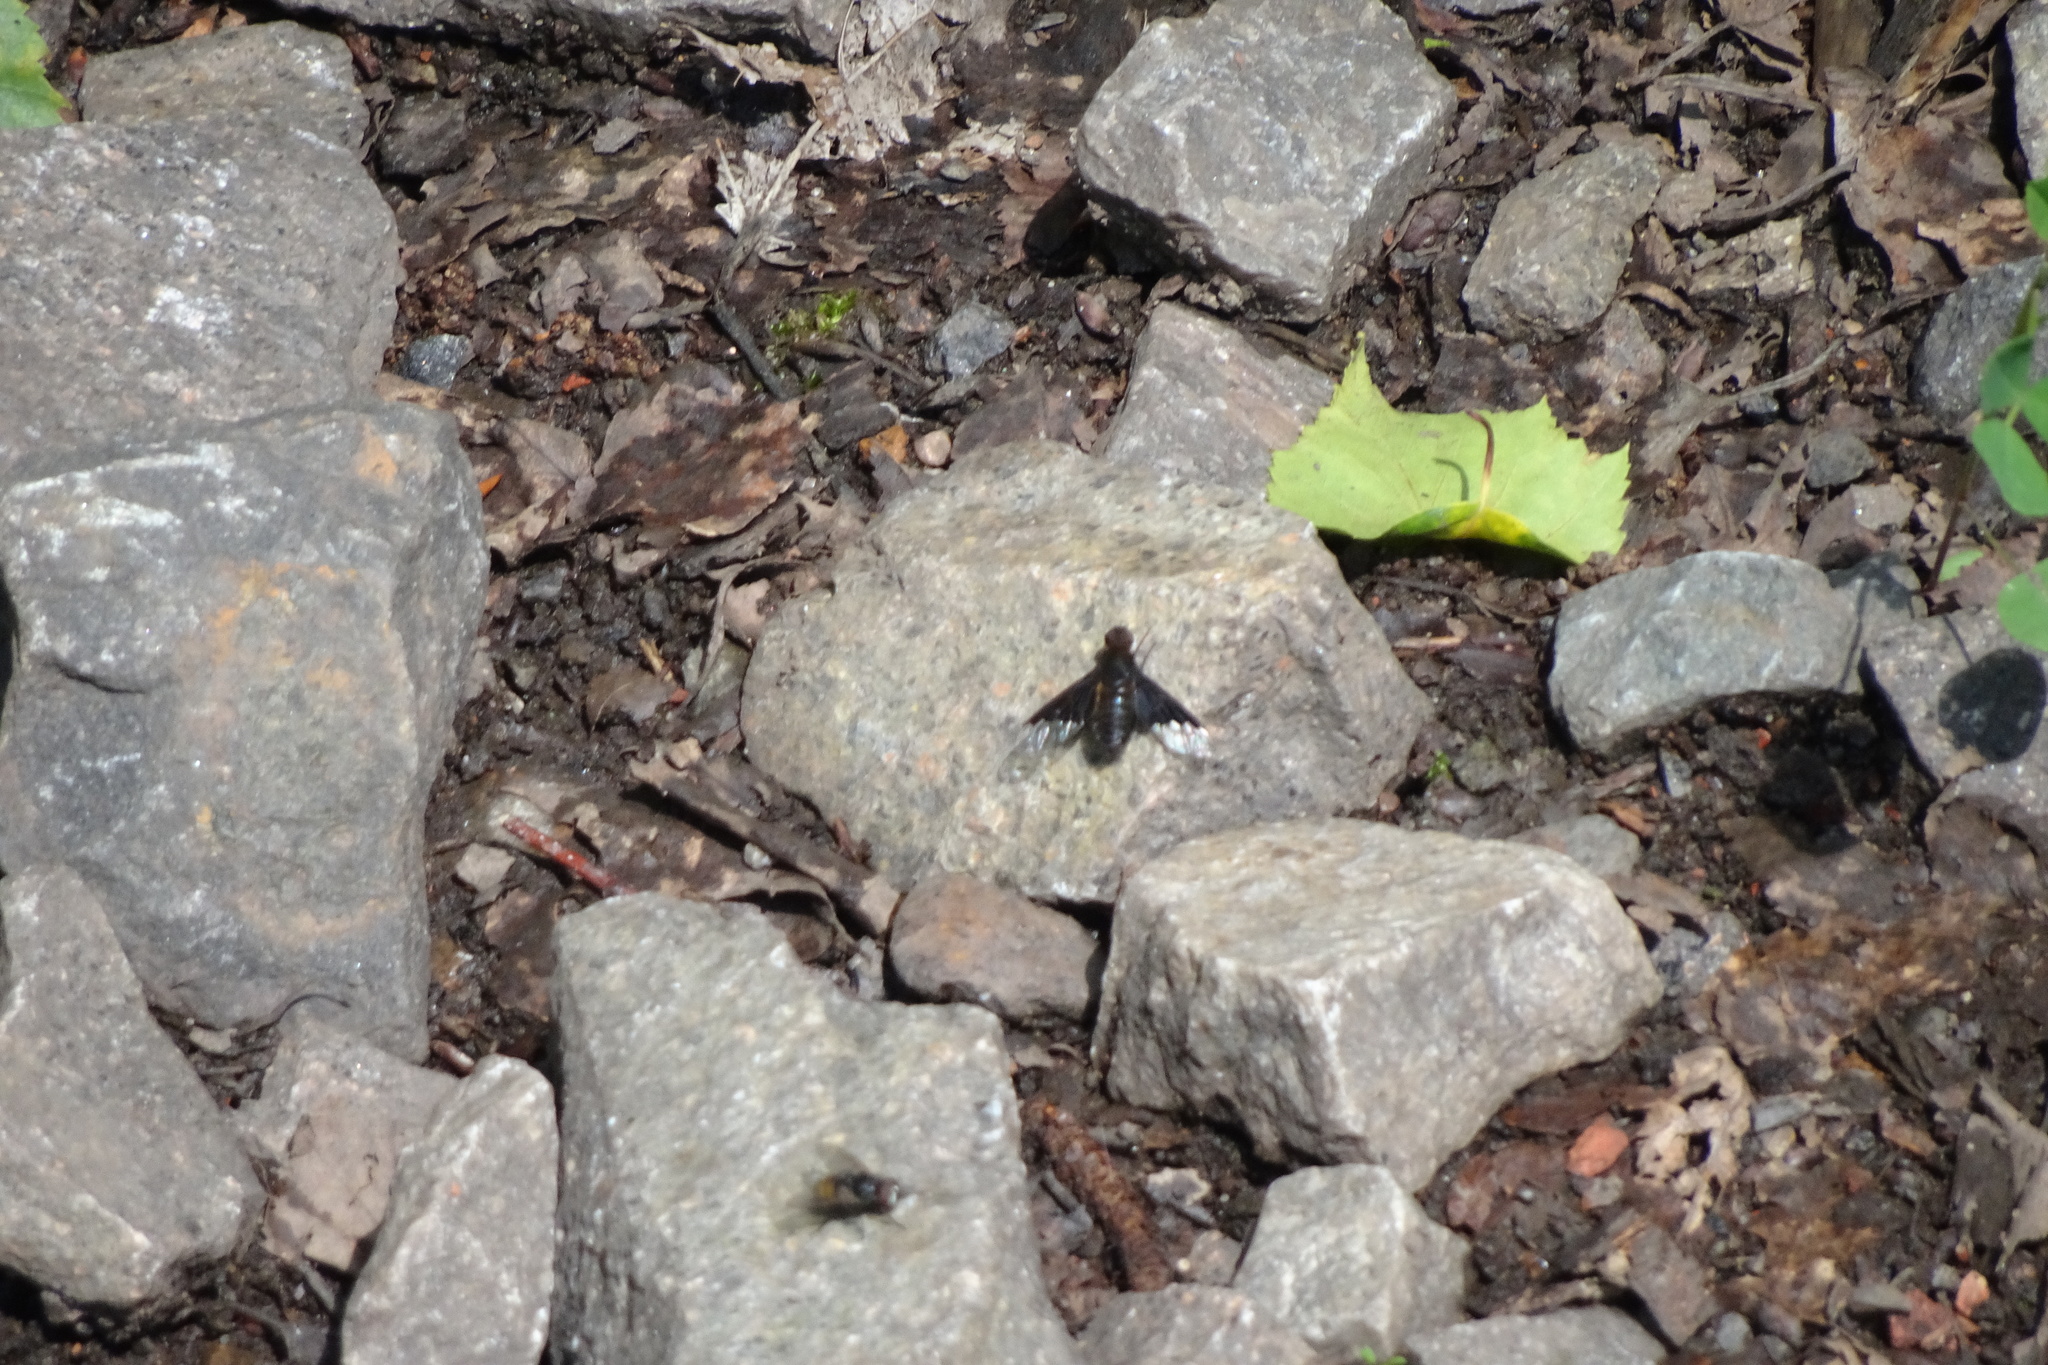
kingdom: Animalia
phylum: Arthropoda
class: Insecta
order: Diptera
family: Bombyliidae
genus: Hemipenthes
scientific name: Hemipenthes morio
